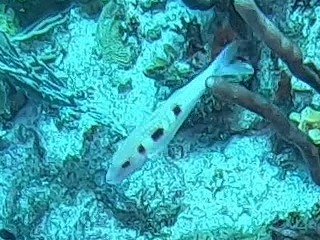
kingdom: Animalia
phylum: Chordata
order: Perciformes
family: Mullidae
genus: Pseudupeneus
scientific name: Pseudupeneus maculatus
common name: Spotted goatfish
